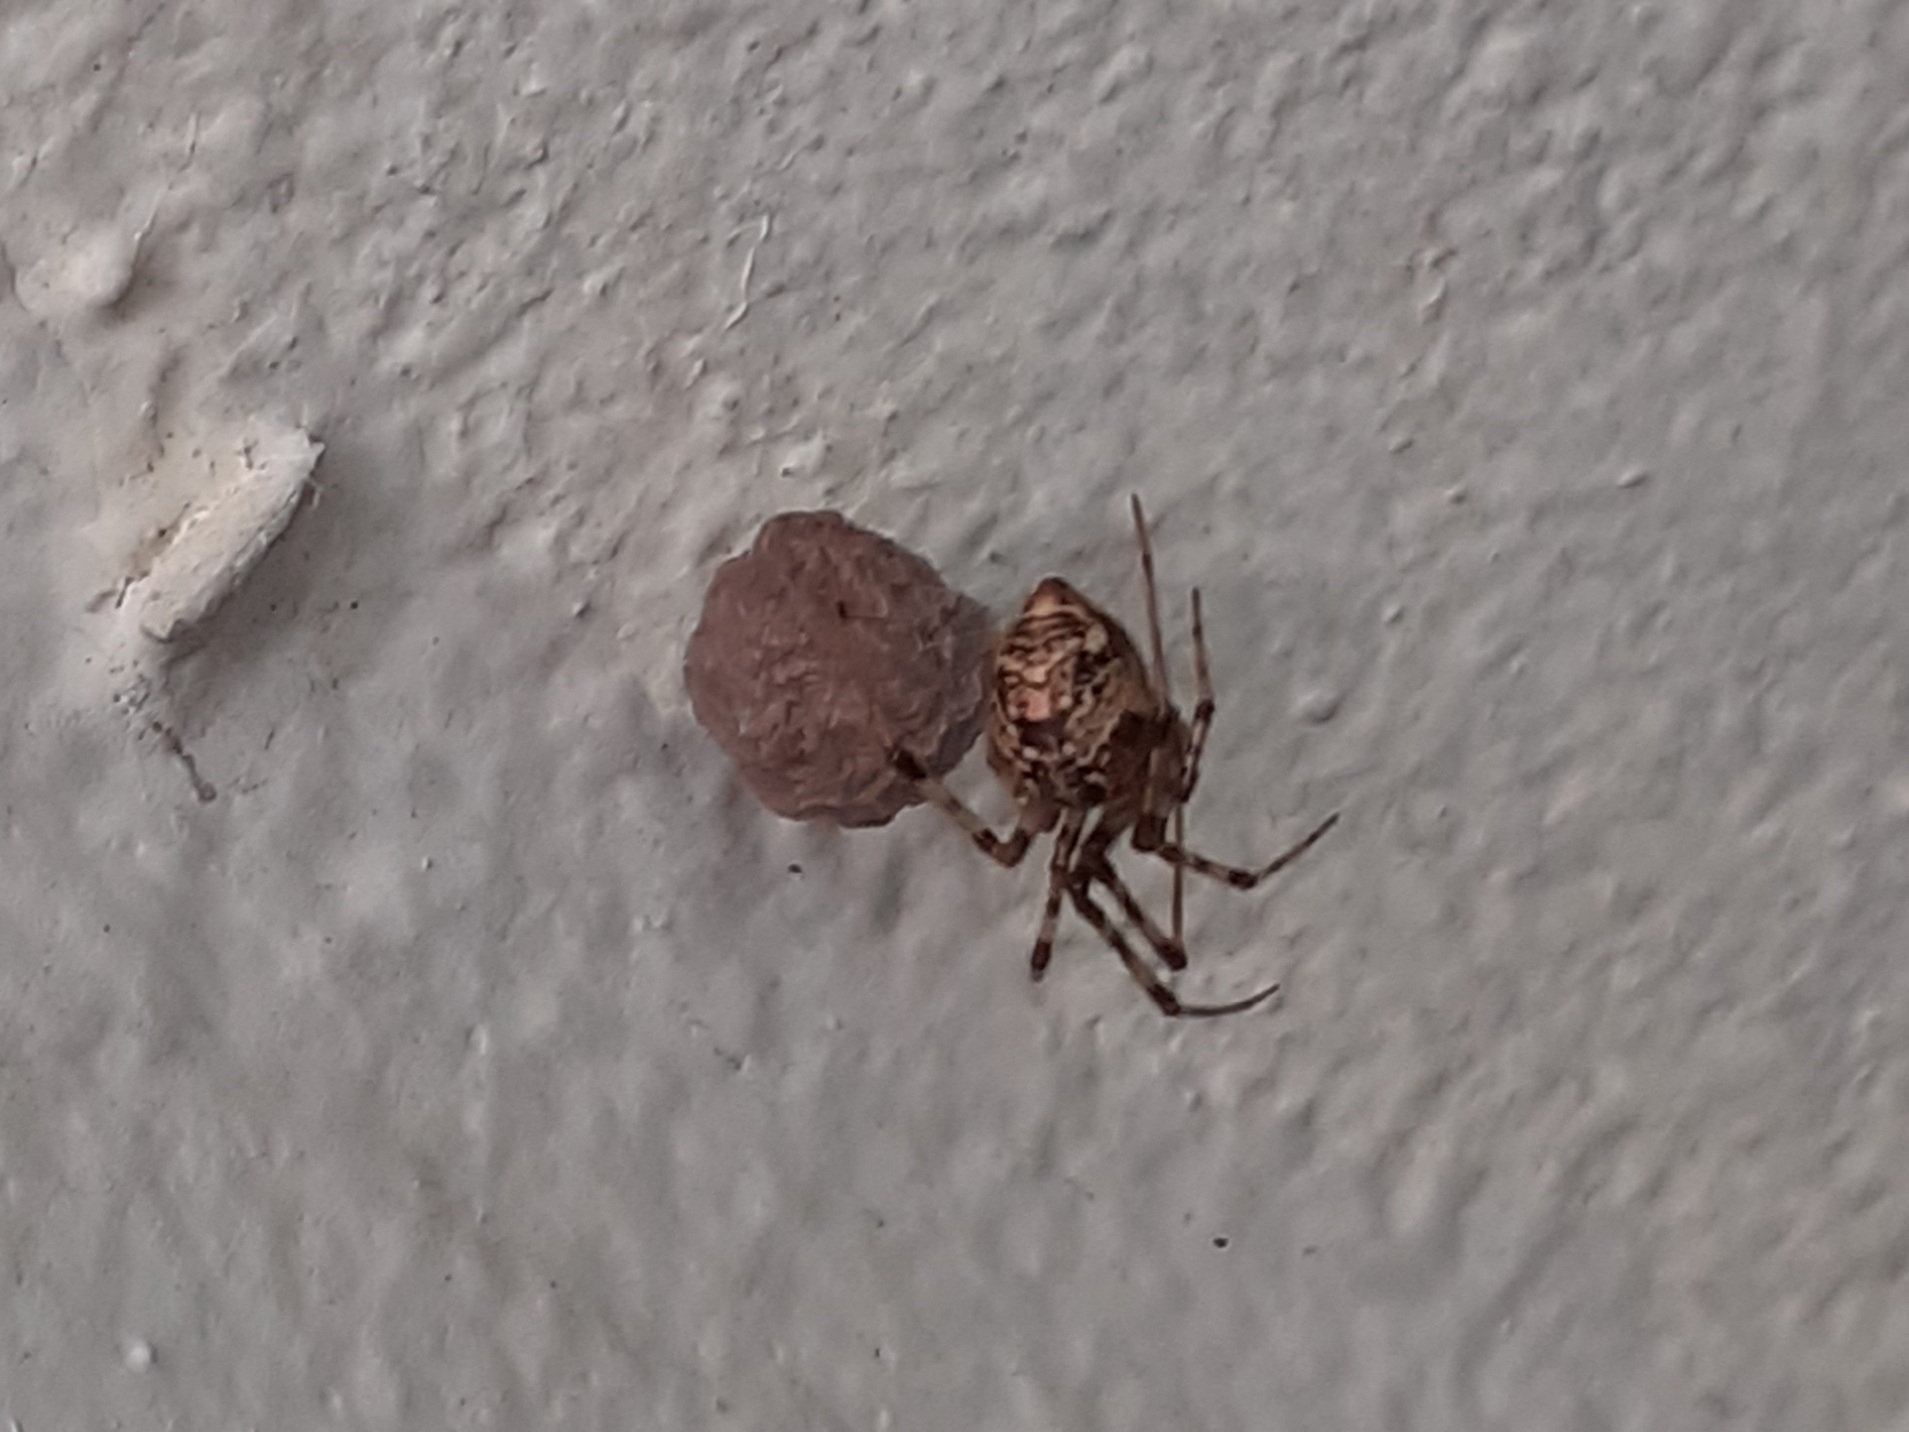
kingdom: Animalia
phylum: Arthropoda
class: Arachnida
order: Araneae
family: Theridiidae
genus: Parasteatoda
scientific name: Parasteatoda tepidariorum
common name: Common house spider
